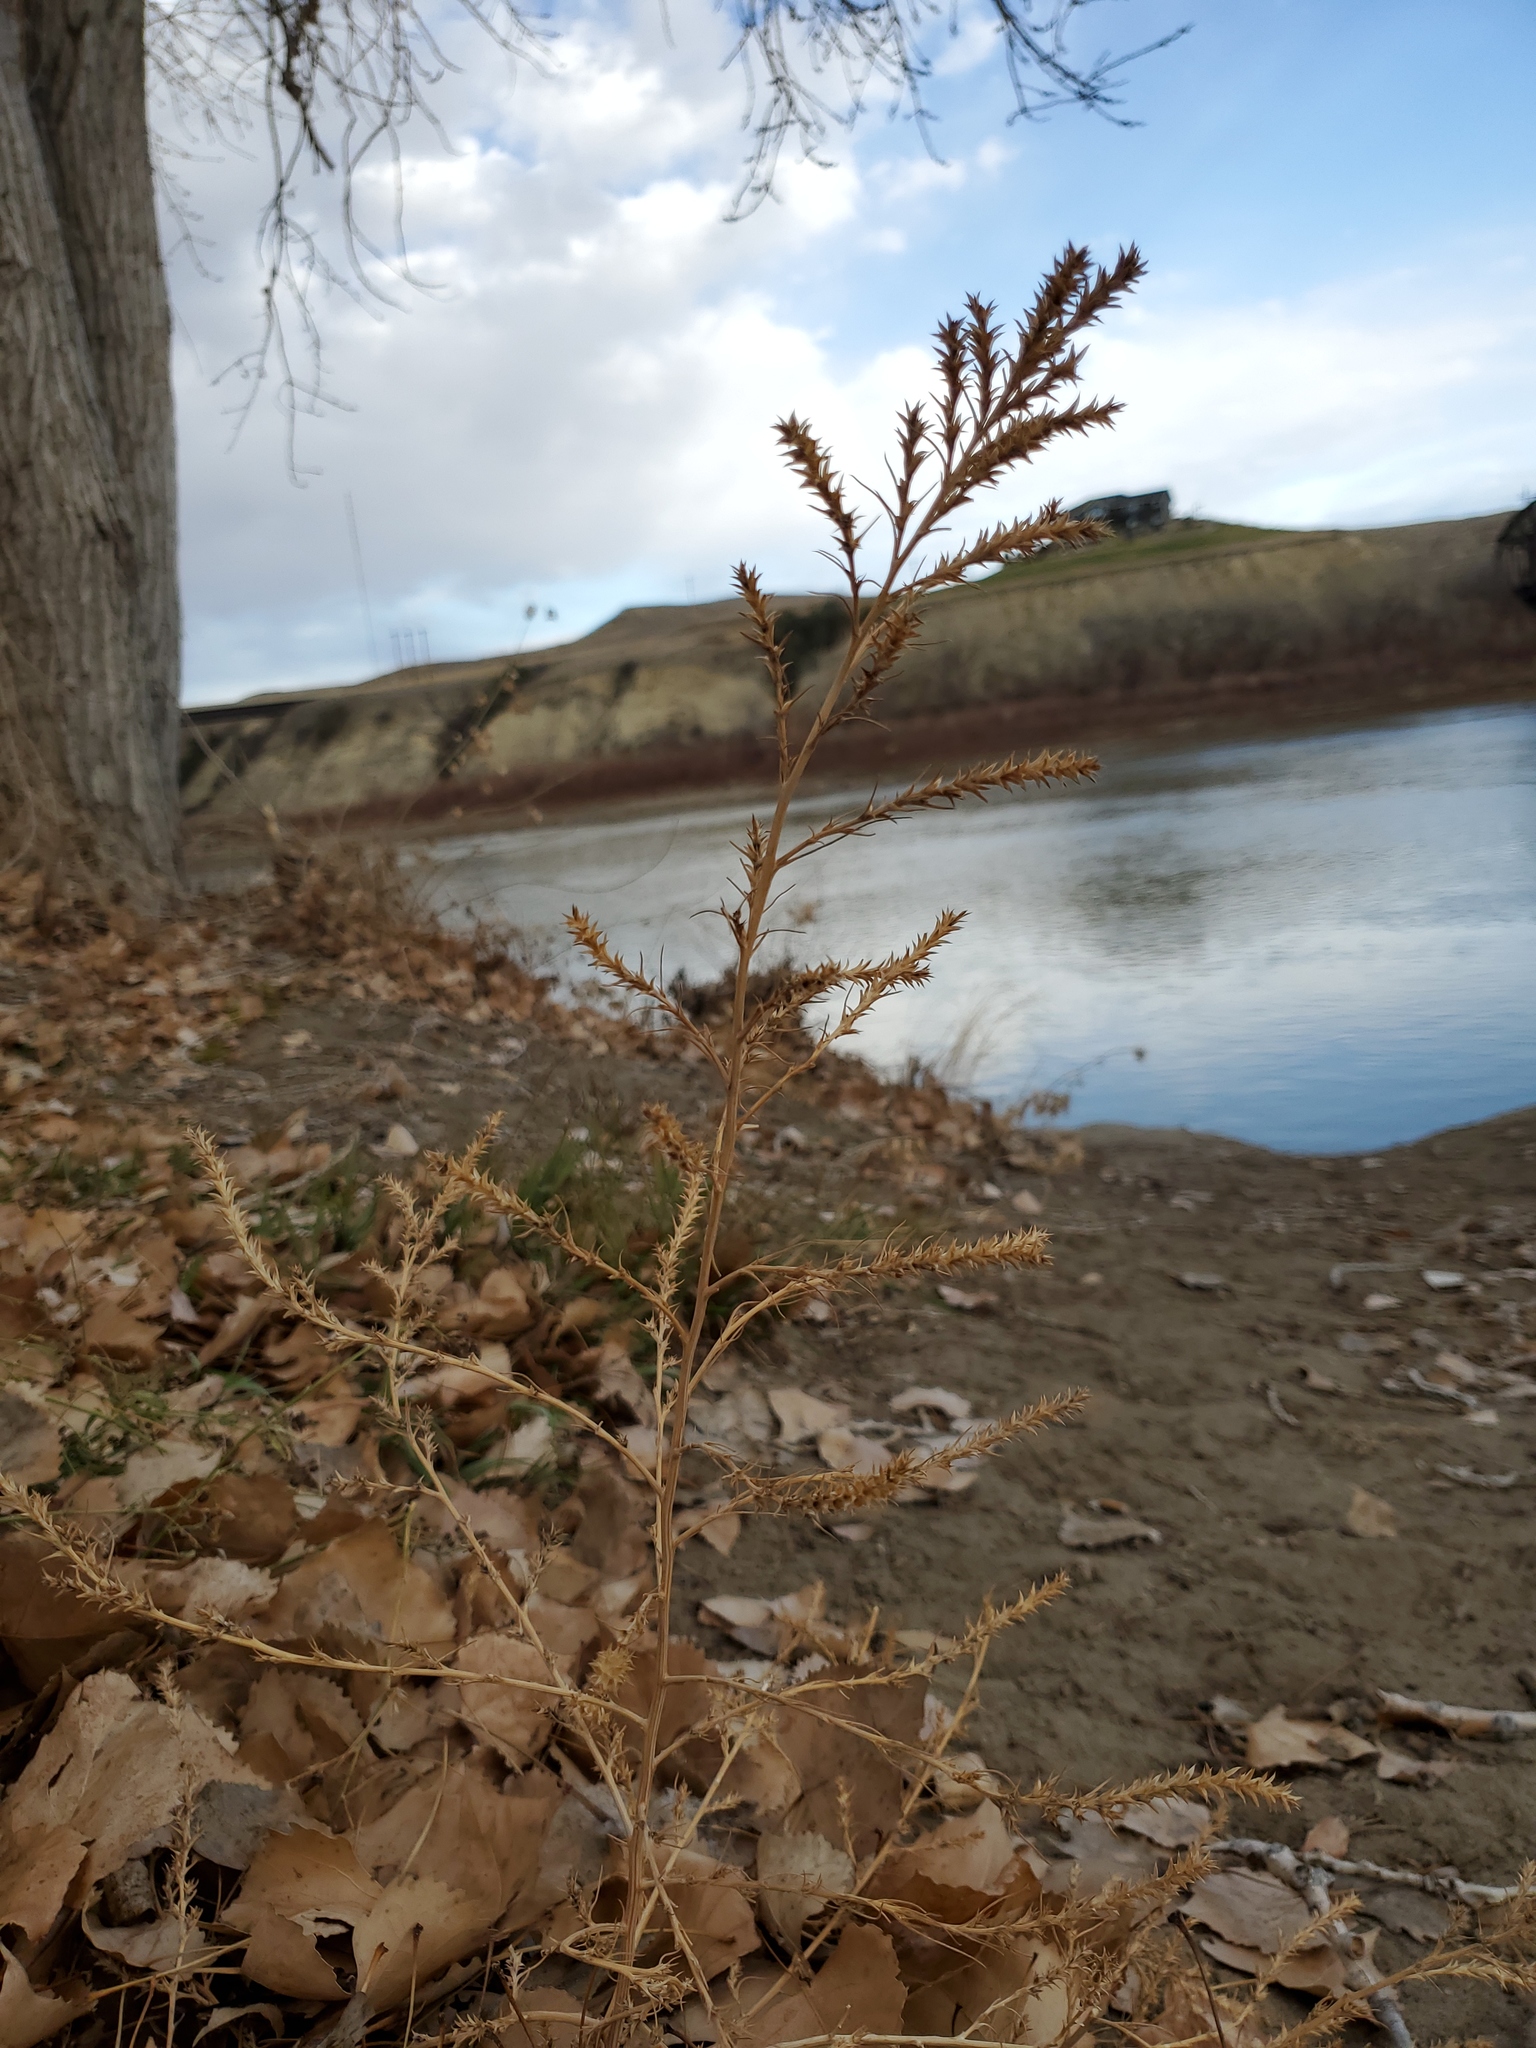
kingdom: Plantae
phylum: Tracheophyta
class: Magnoliopsida
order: Caryophyllales
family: Amaranthaceae
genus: Salsola
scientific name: Salsola tragus
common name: Prickly russian thistle
